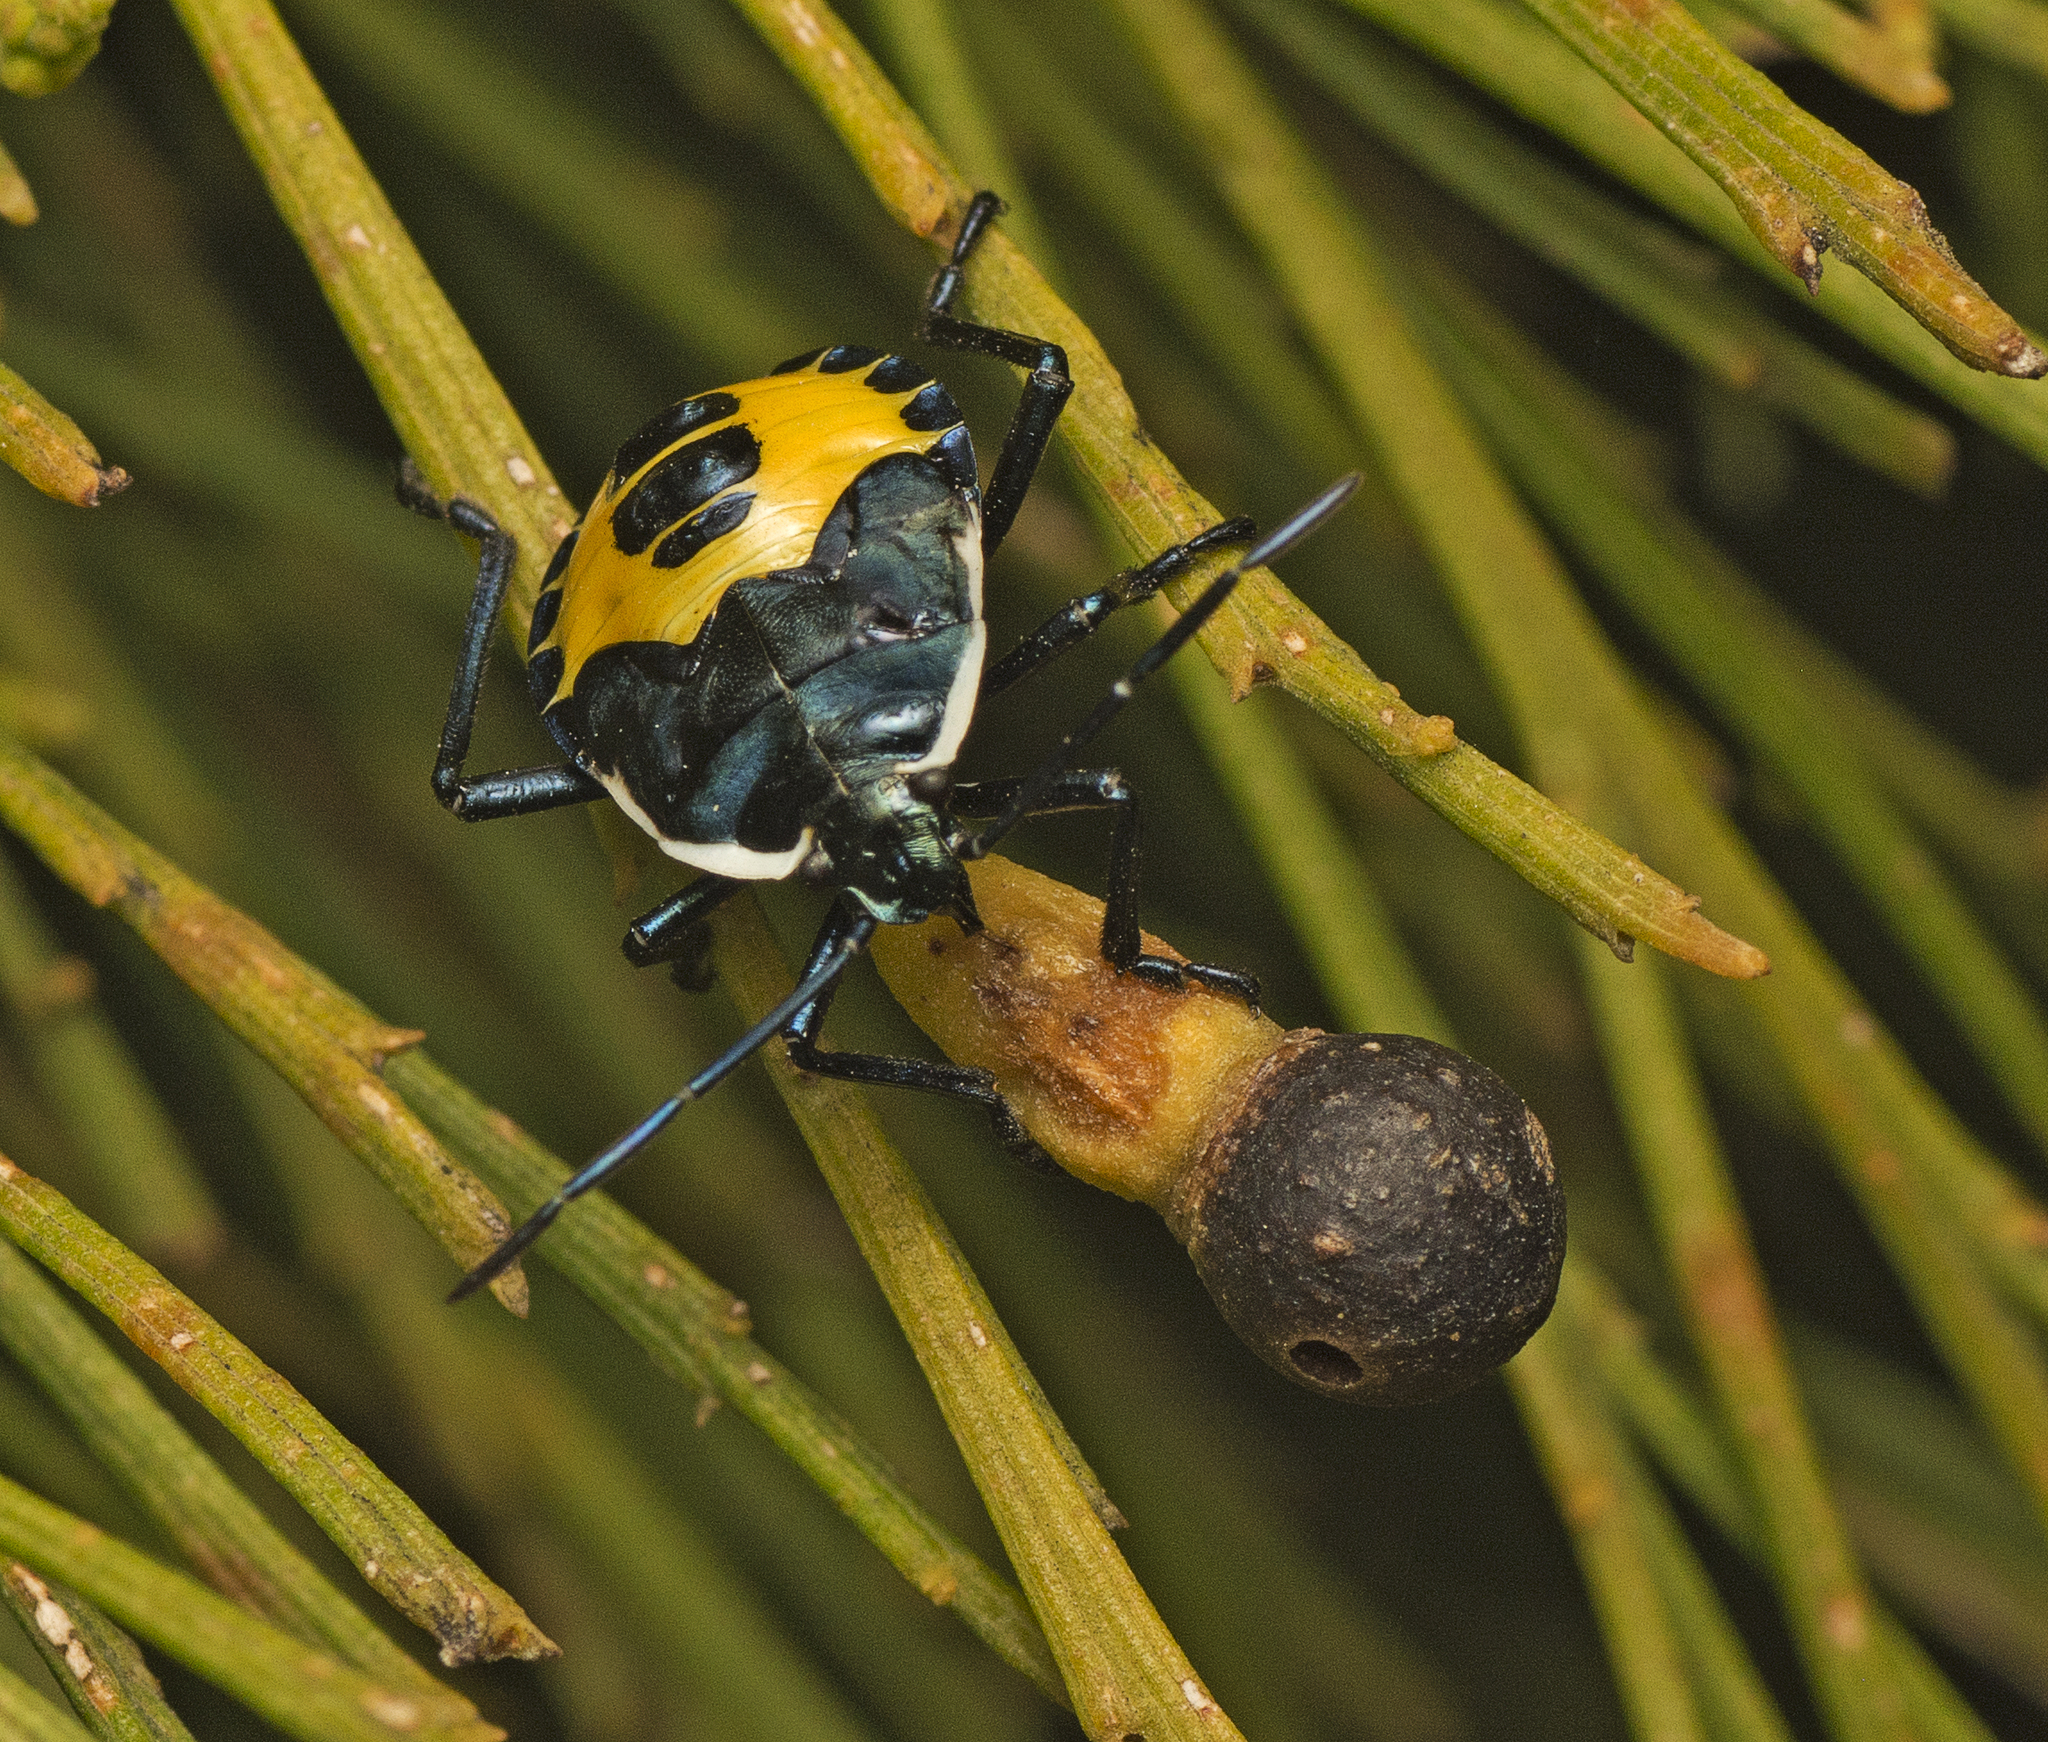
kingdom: Animalia
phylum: Arthropoda
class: Insecta
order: Hemiptera
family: Pentatomidae
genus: Commius
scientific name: Commius
